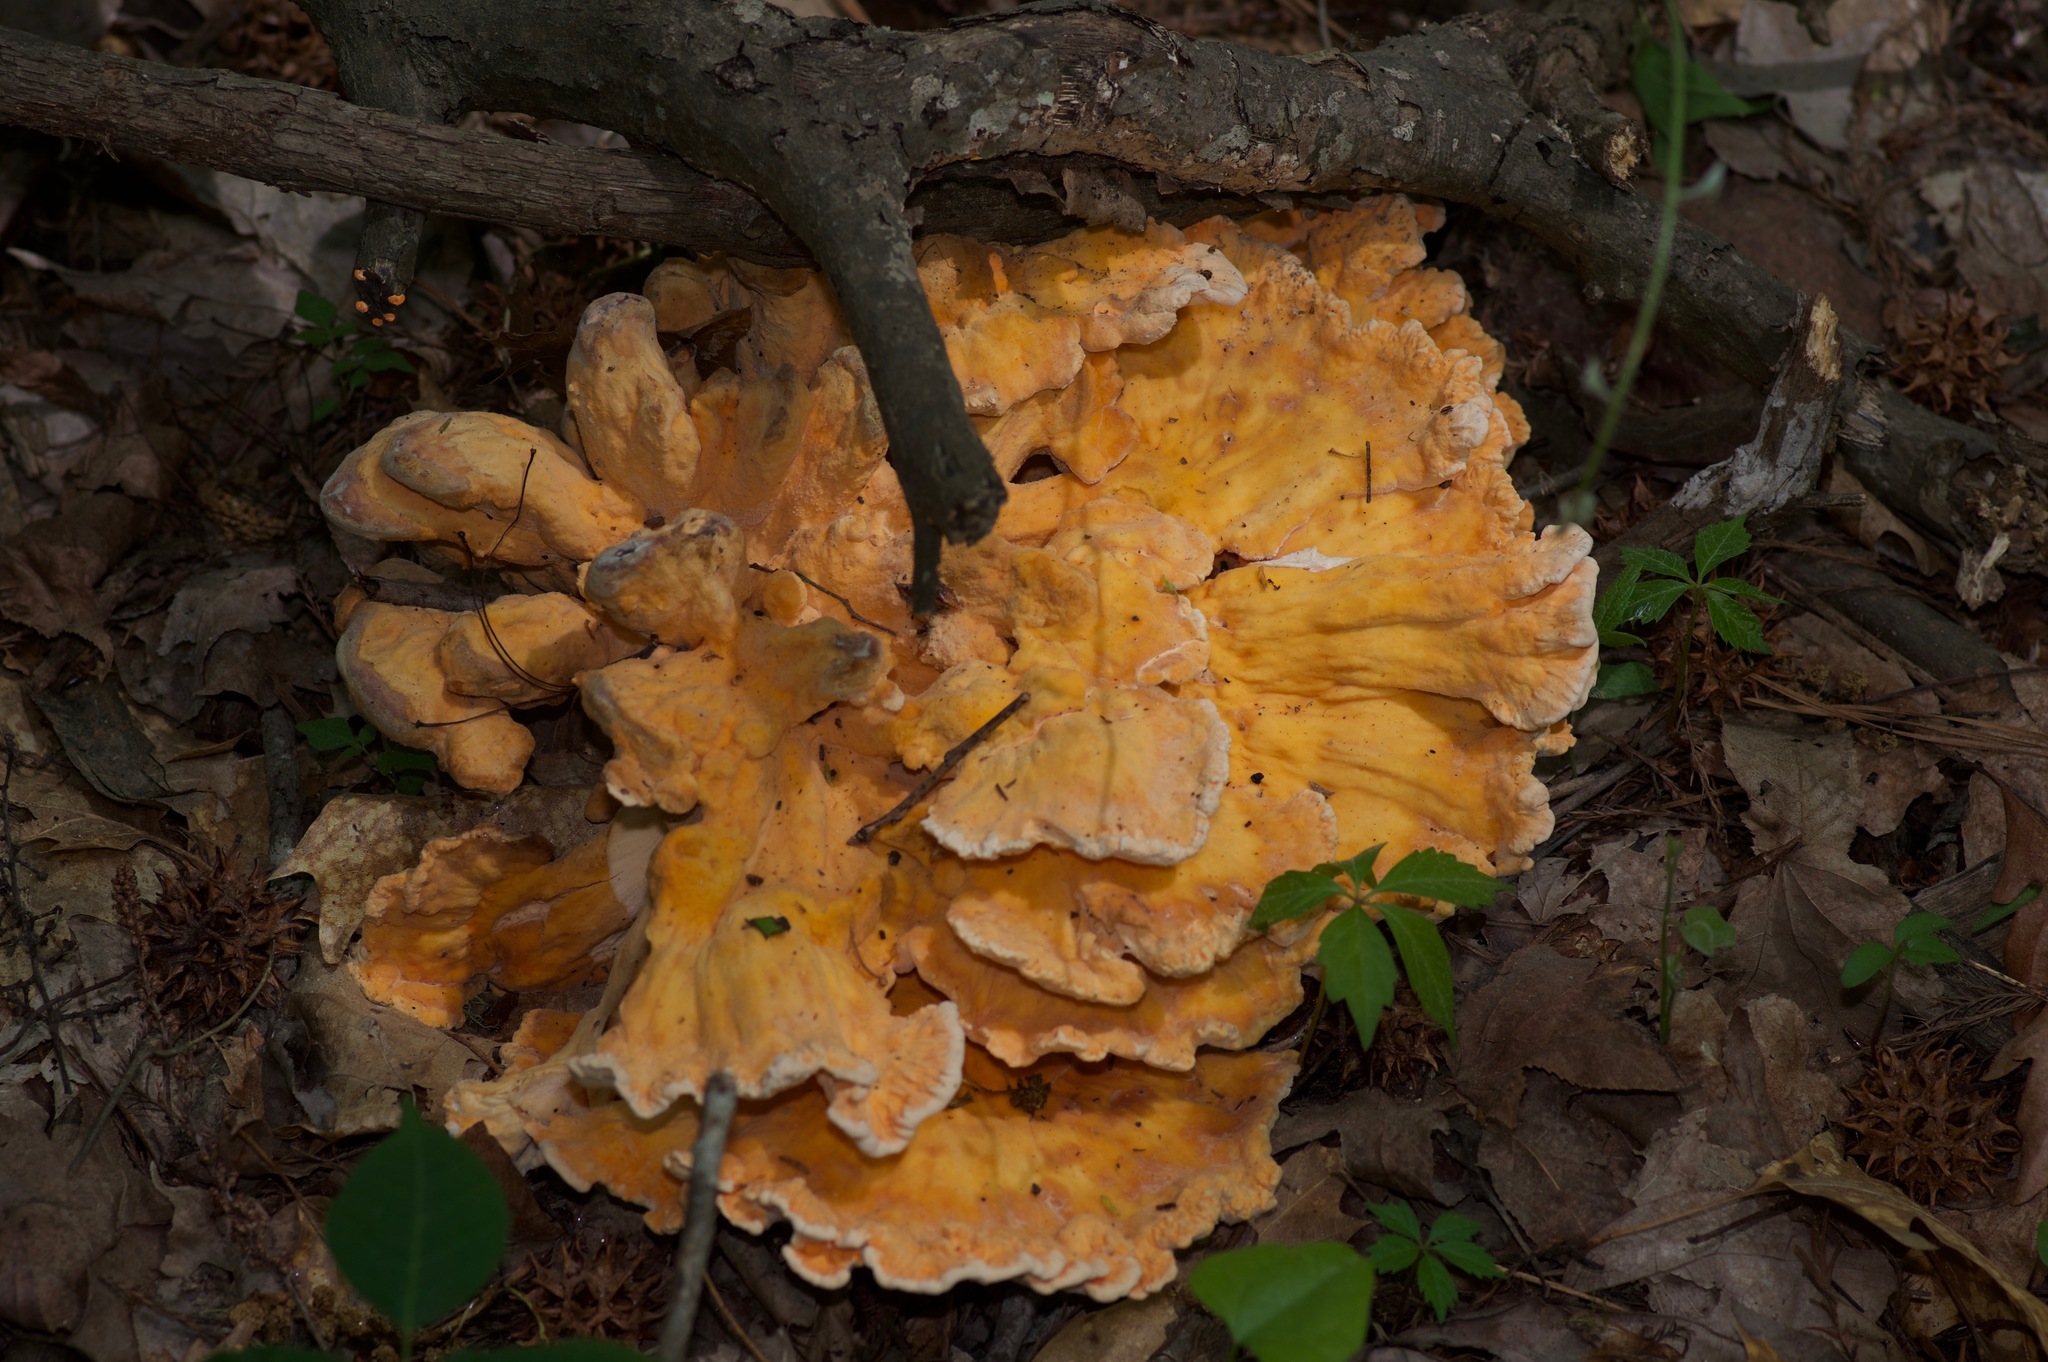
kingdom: Fungi
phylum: Basidiomycota
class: Agaricomycetes
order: Polyporales
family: Laetiporaceae
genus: Laetiporus
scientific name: Laetiporus sulphureus
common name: Chicken of the woods
